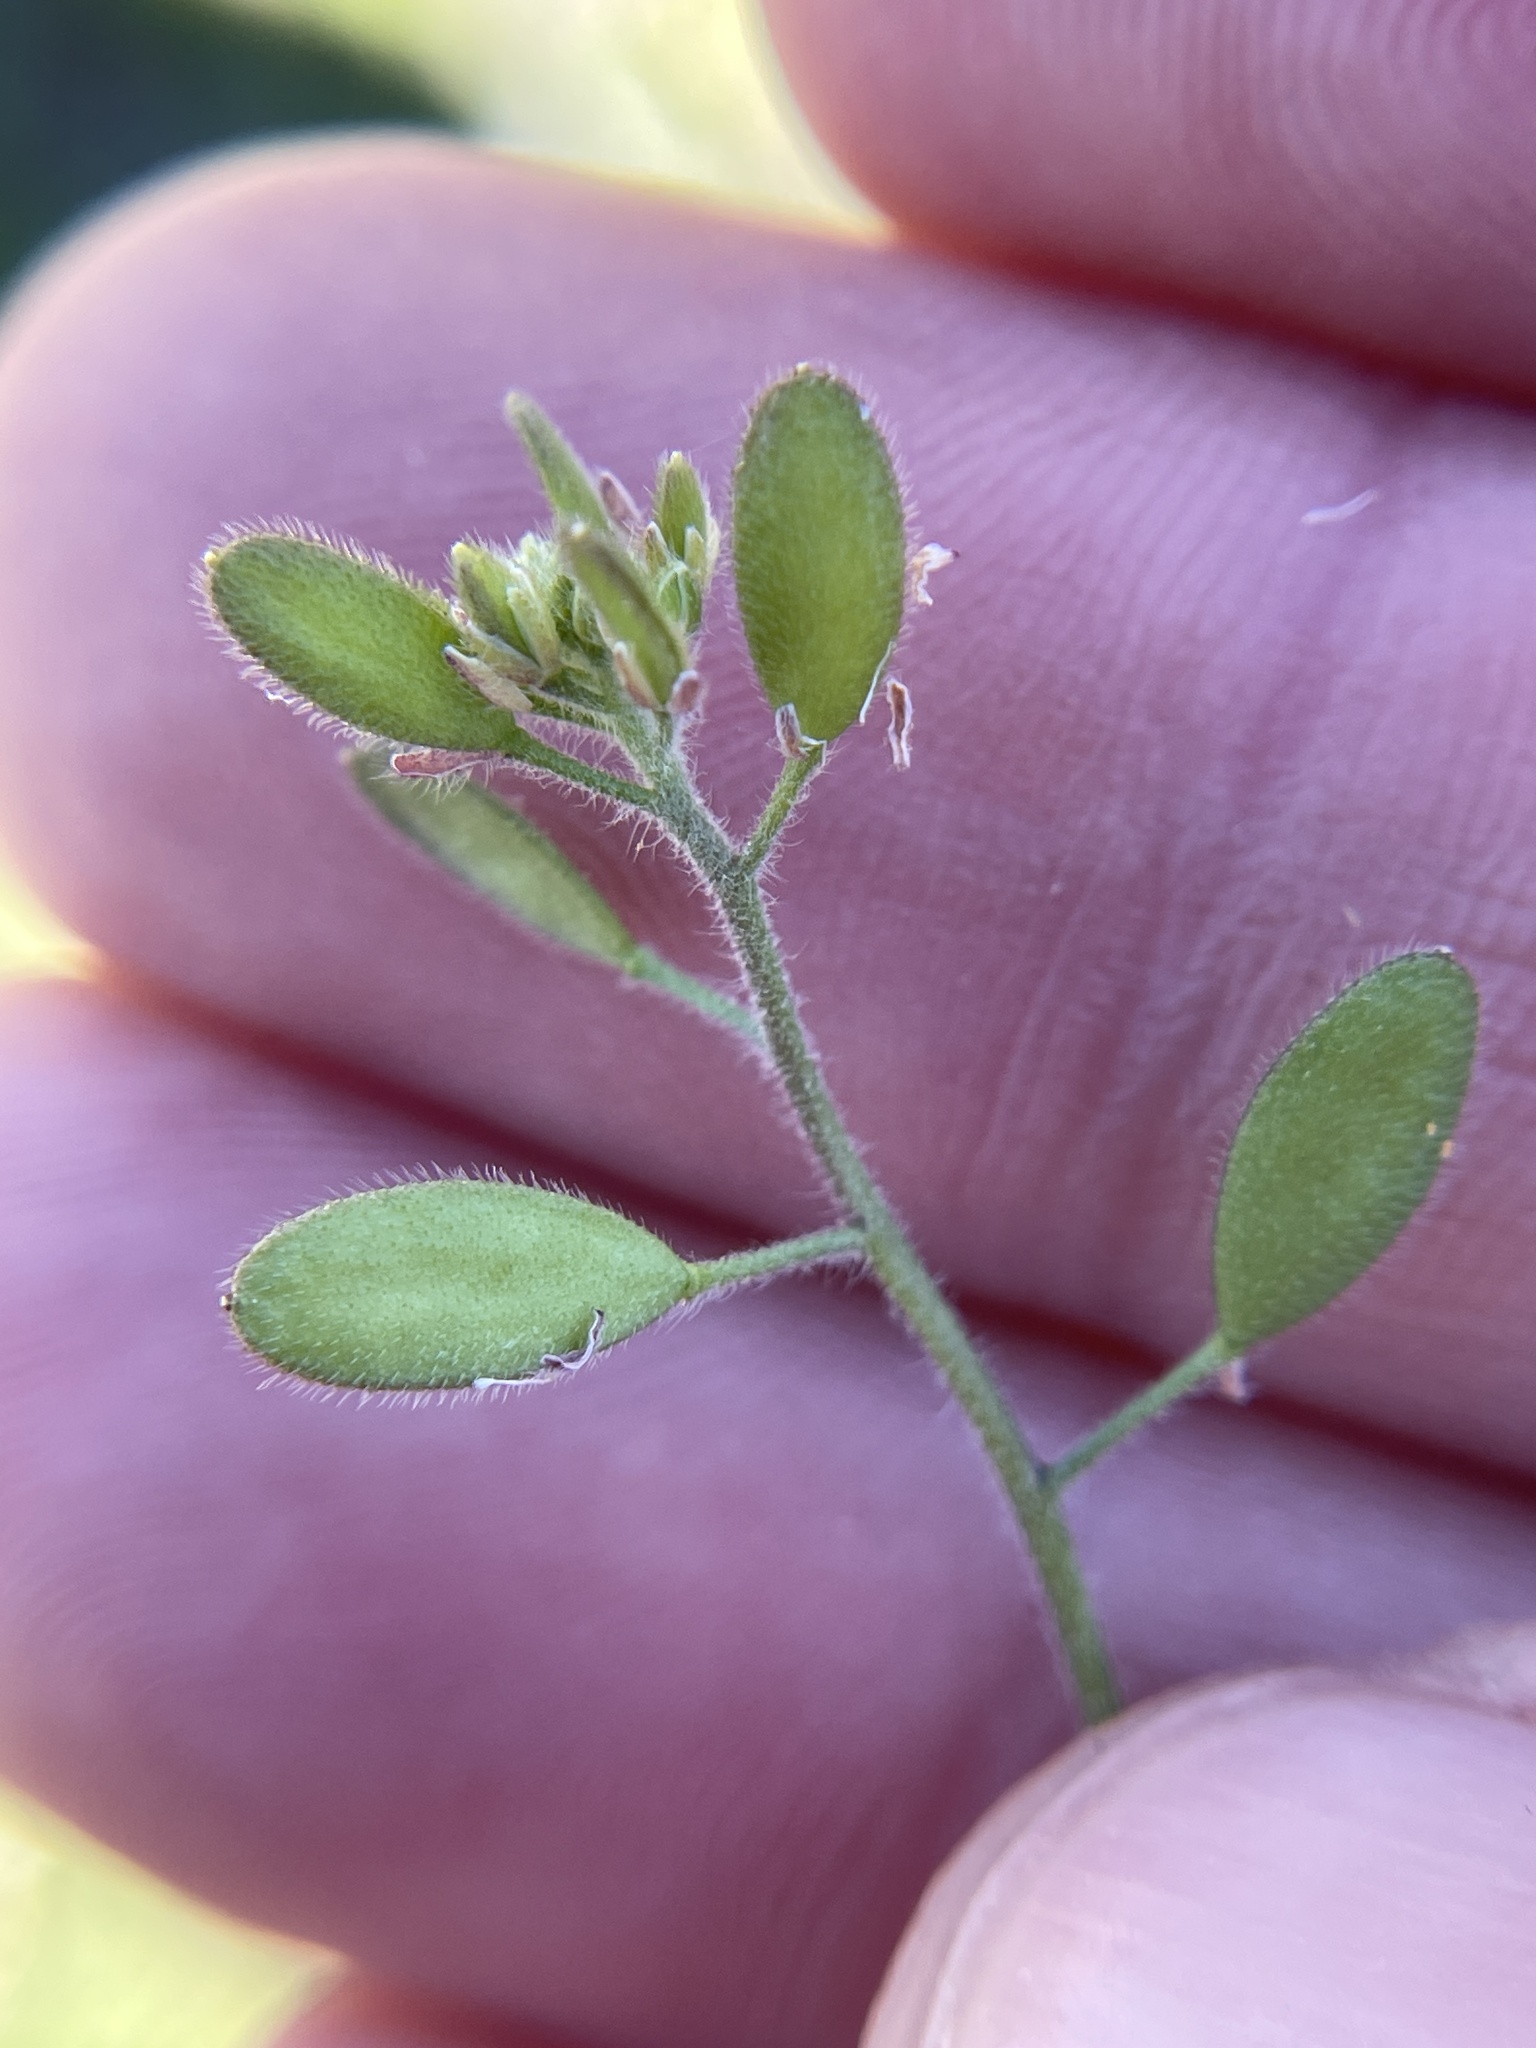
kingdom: Plantae
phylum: Tracheophyta
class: Magnoliopsida
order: Brassicales
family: Brassicaceae
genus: Tomostima
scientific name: Tomostima platycarpa
